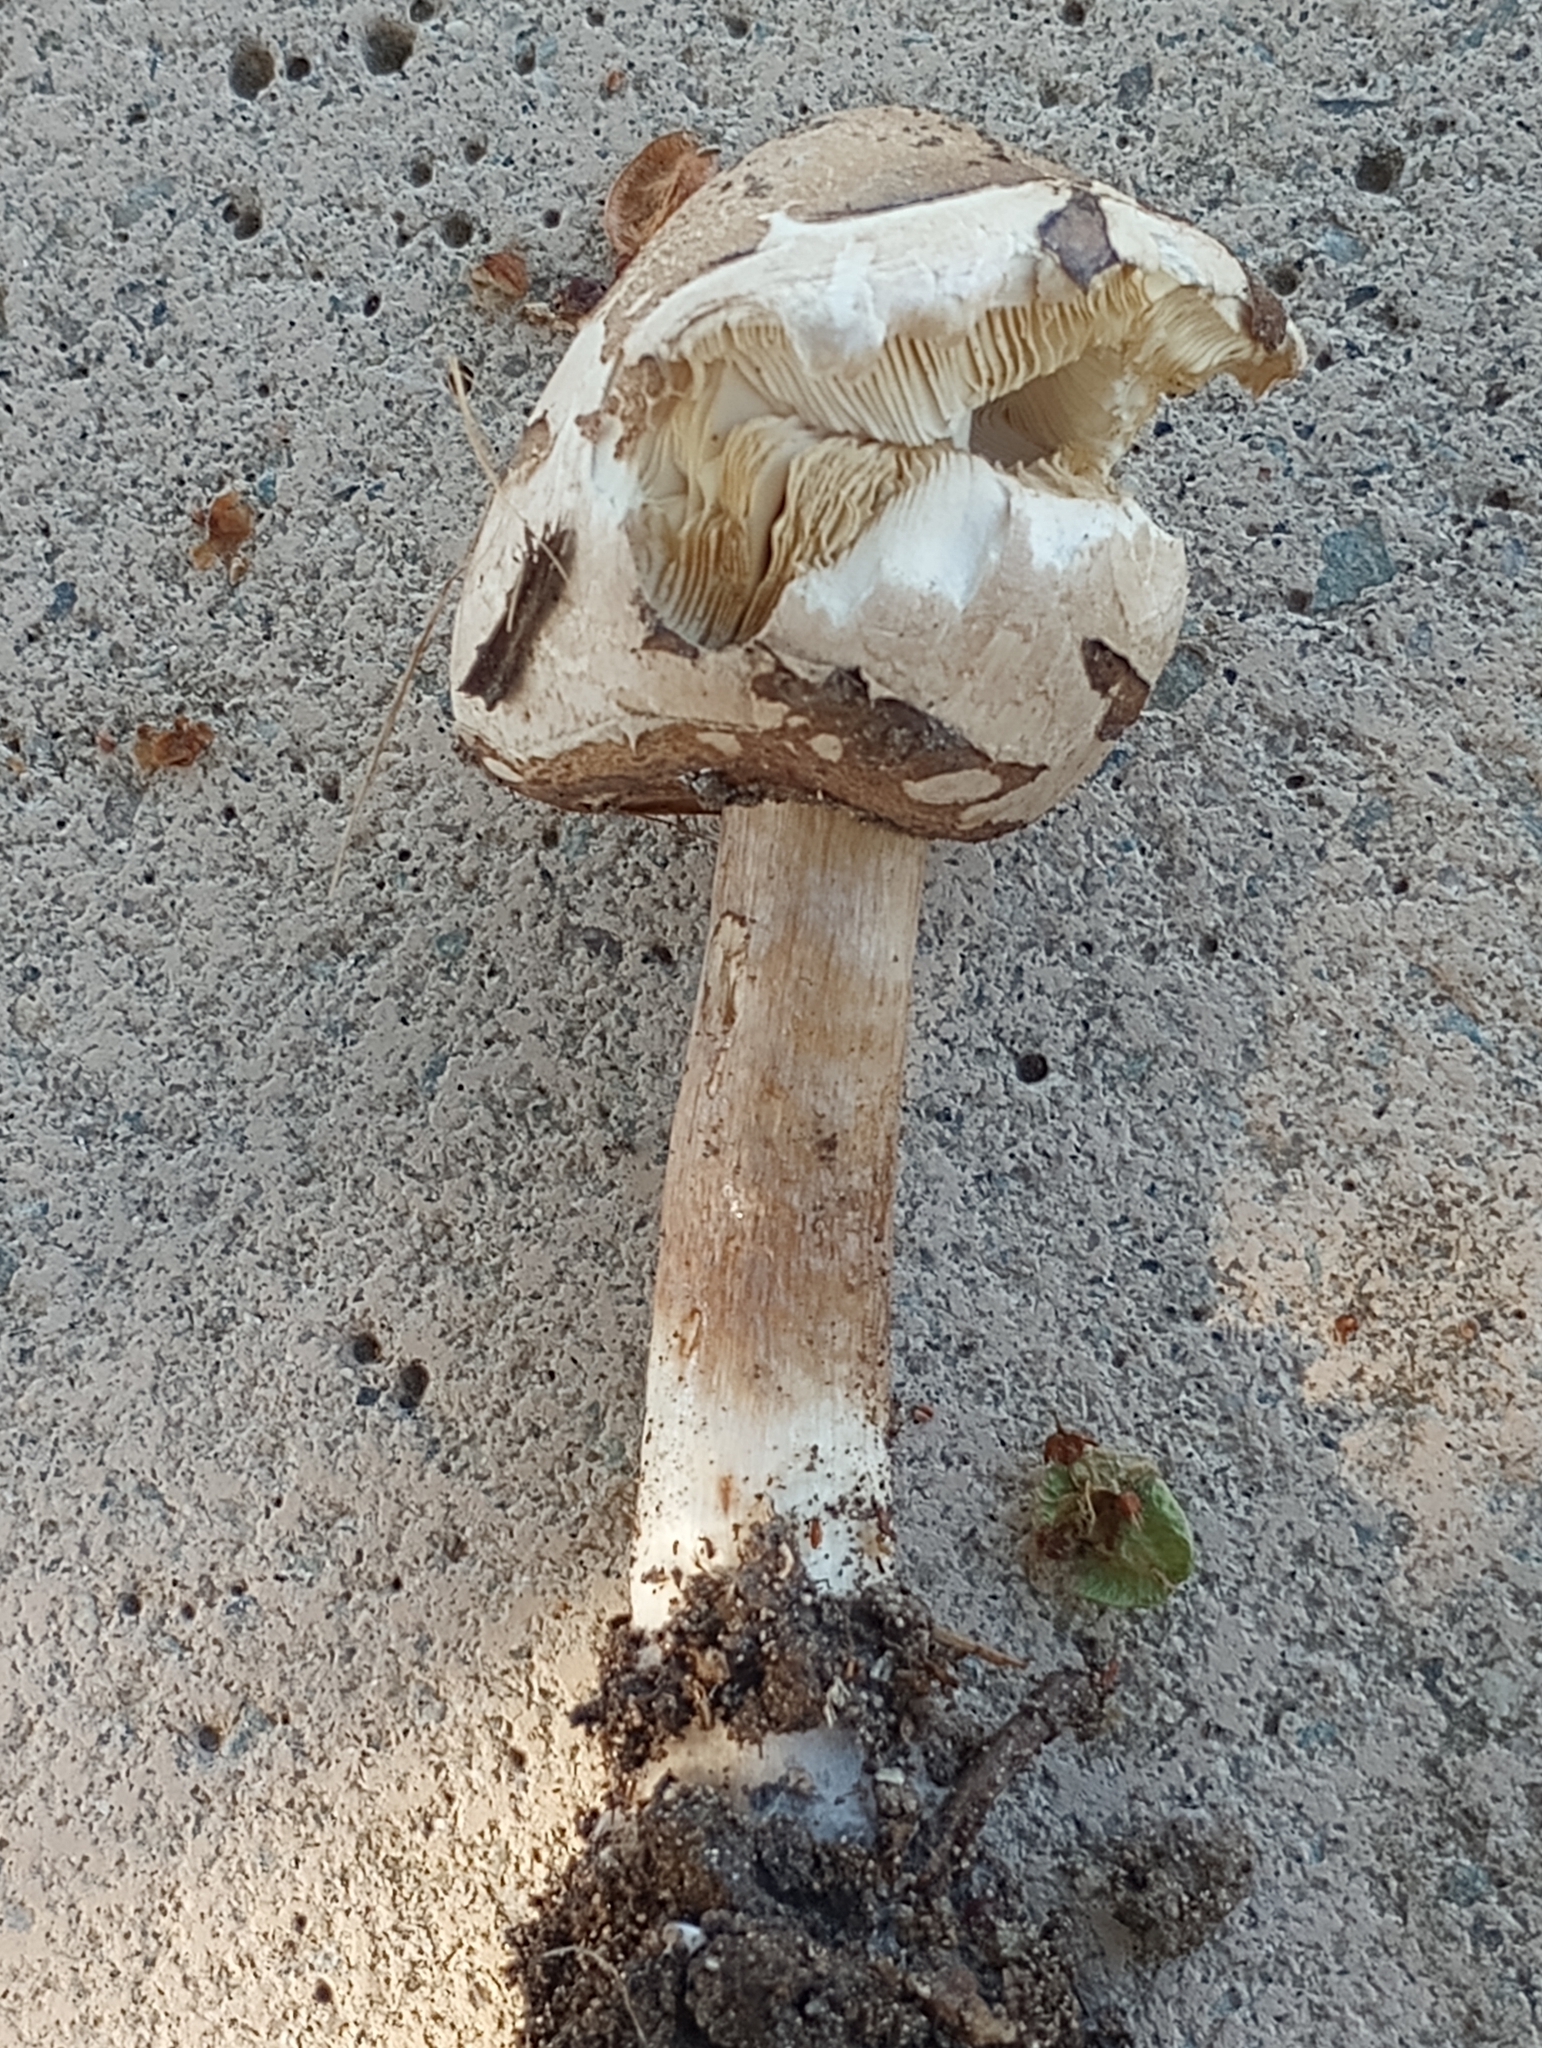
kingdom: Fungi
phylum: Basidiomycota
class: Agaricomycetes
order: Agaricales
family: Agaricaceae
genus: Chlorophyllum
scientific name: Chlorophyllum molybdites
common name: False parasol
